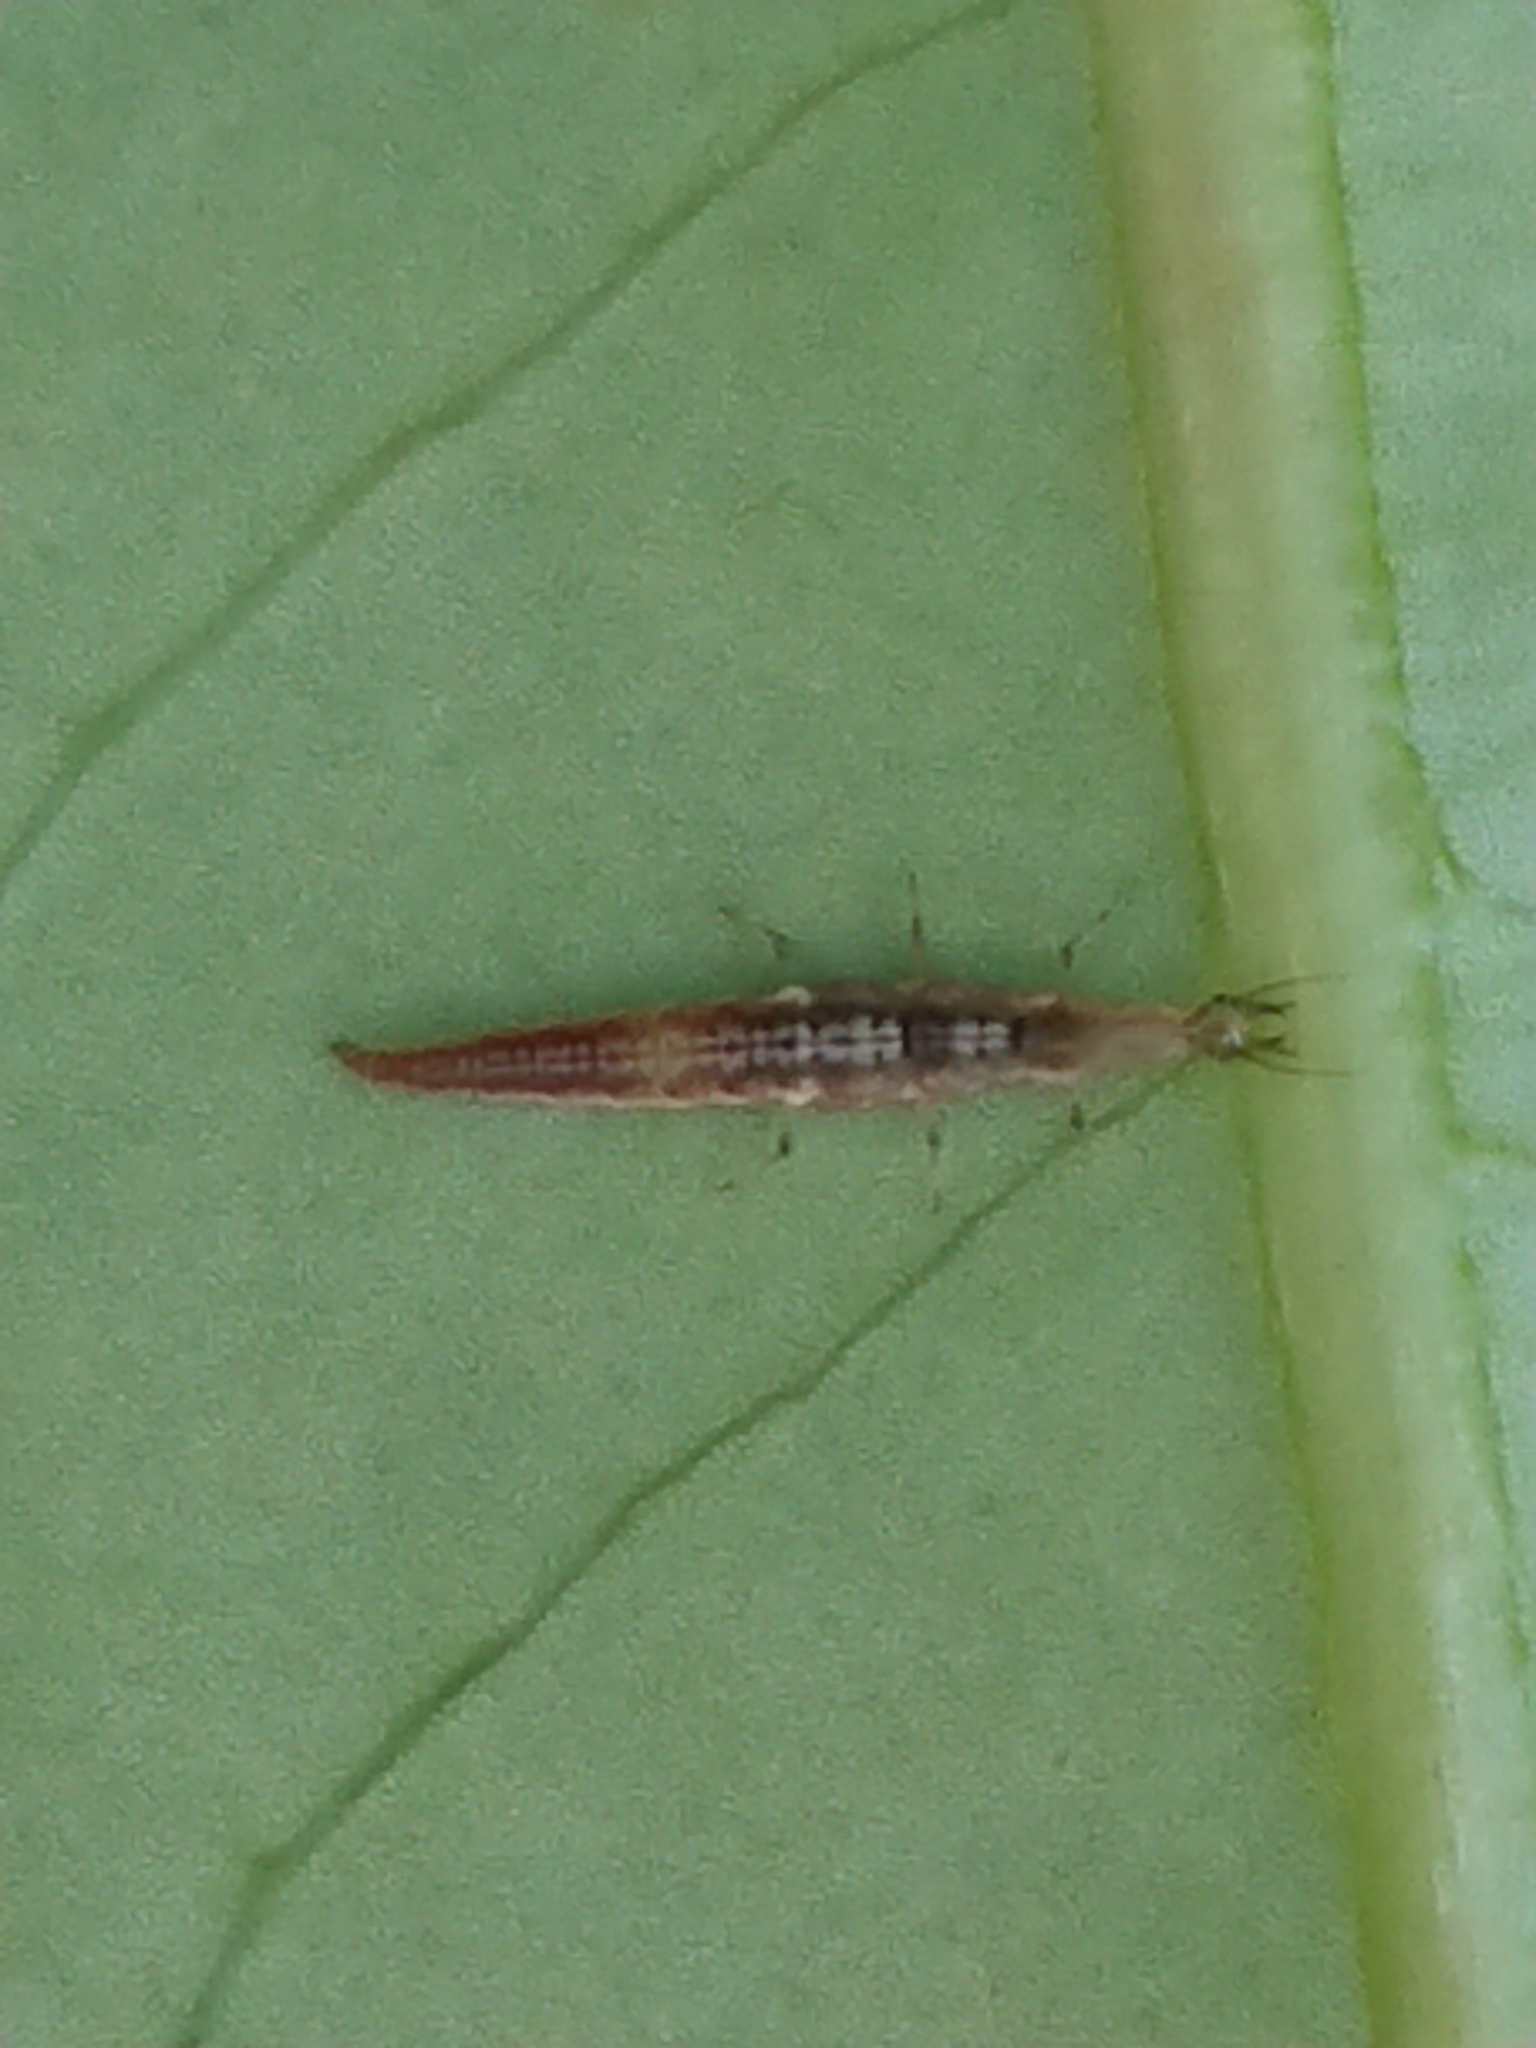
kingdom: Animalia
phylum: Arthropoda
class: Insecta
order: Neuroptera
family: Hemerobiidae
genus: Micromus
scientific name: Micromus tasmaniae
